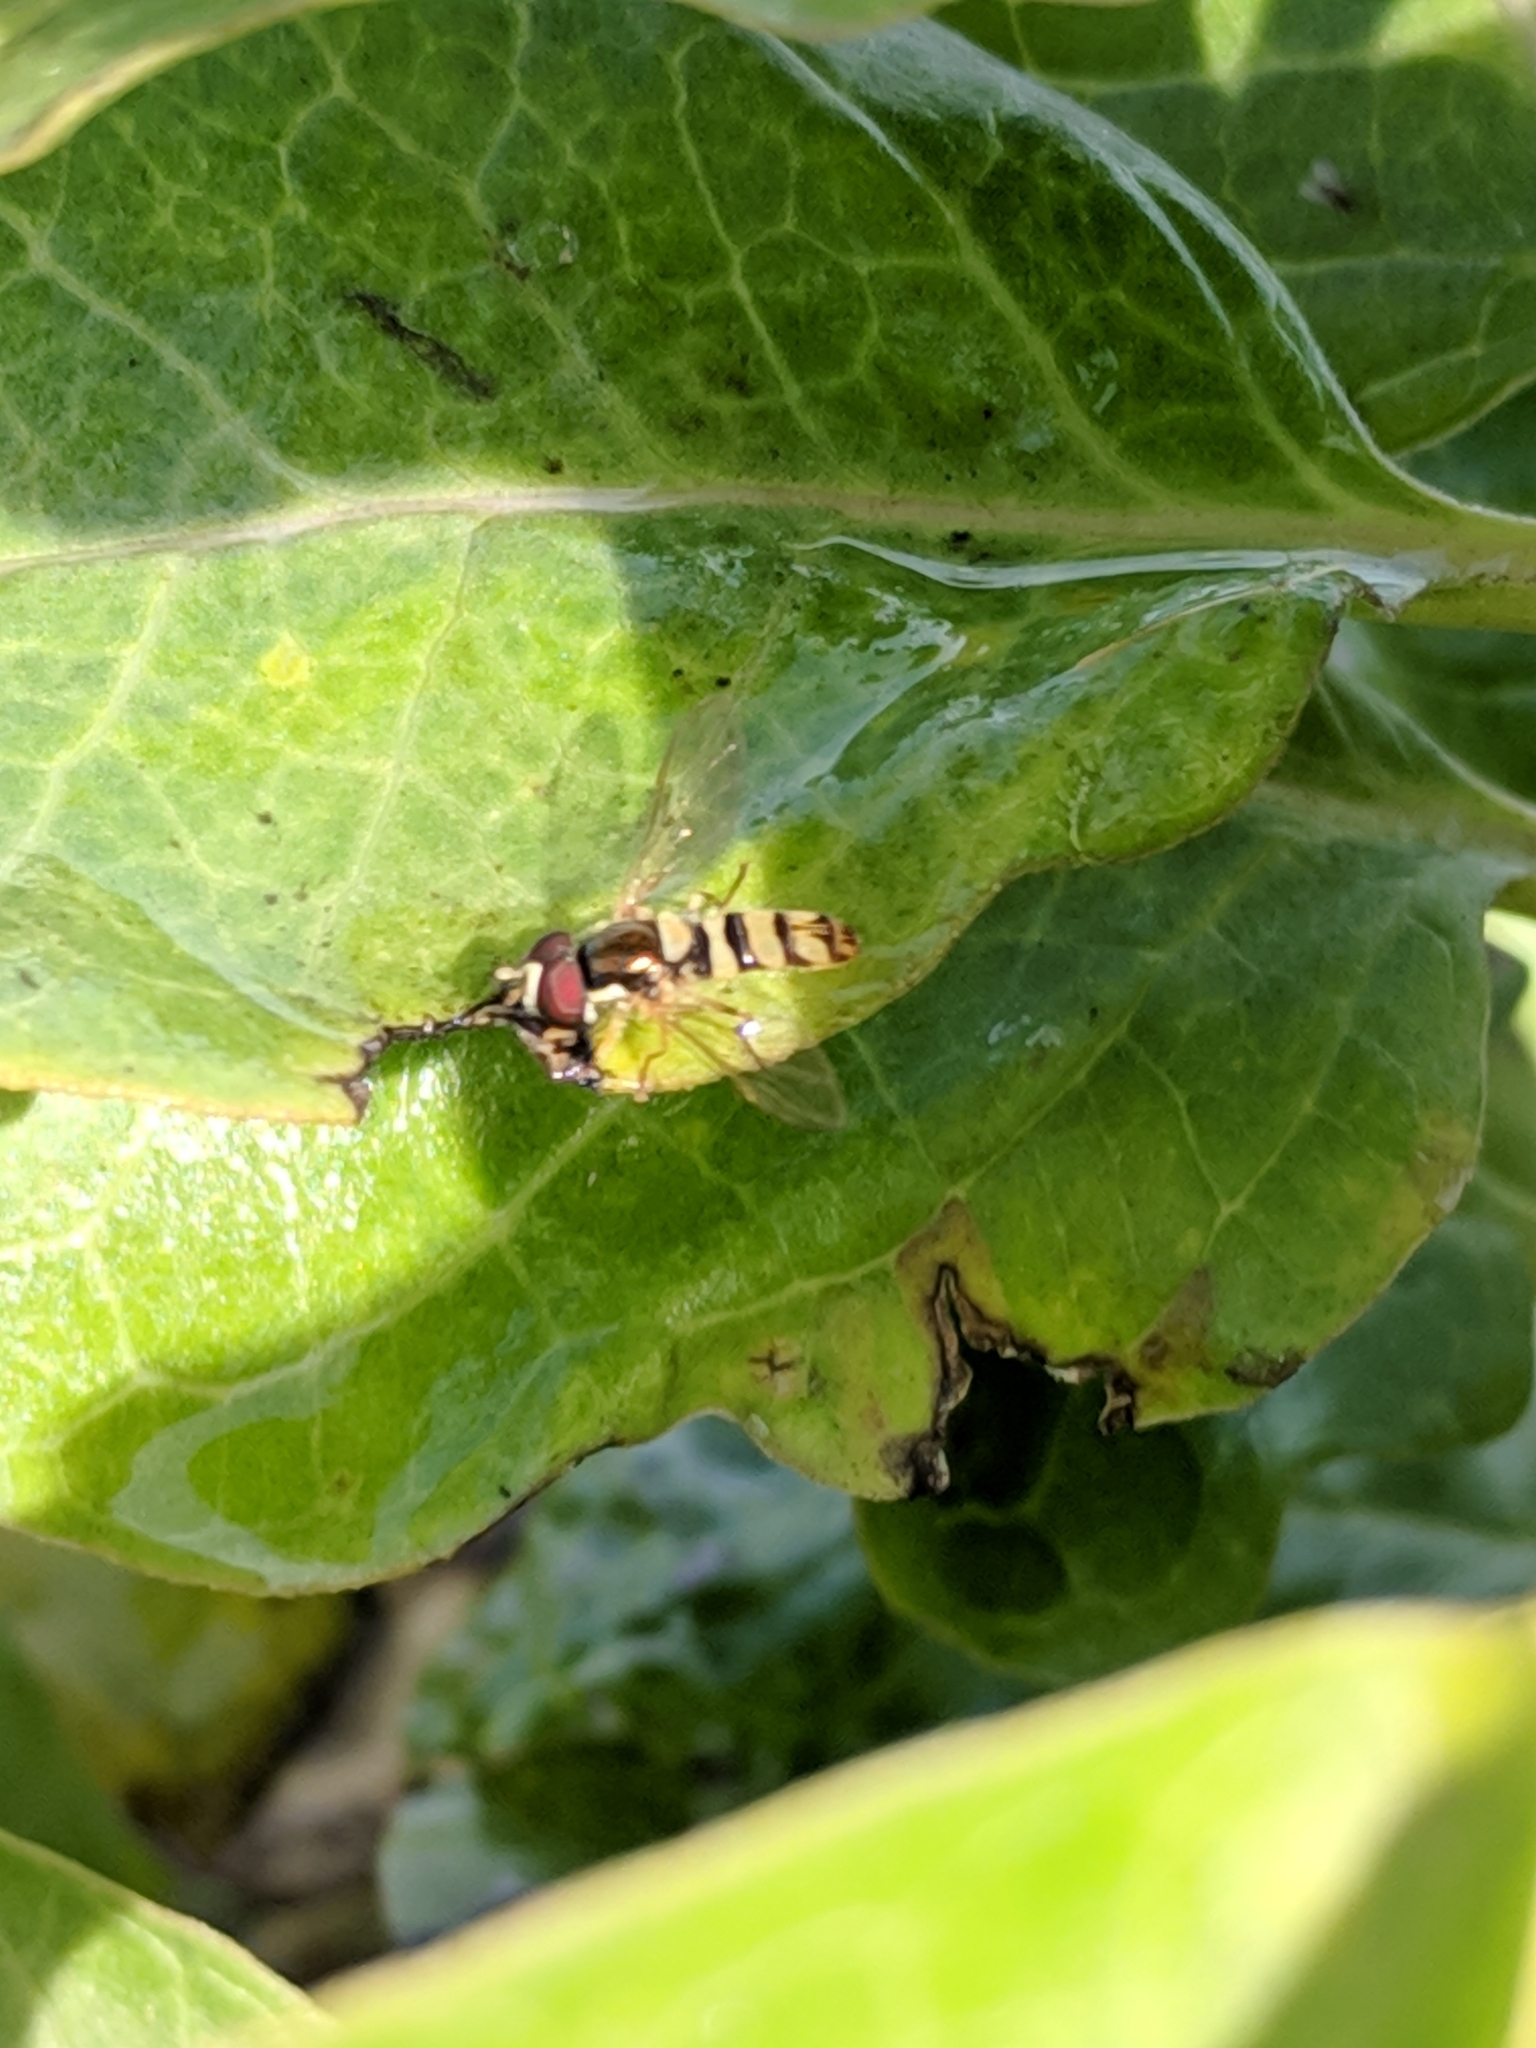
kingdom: Animalia
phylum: Arthropoda
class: Insecta
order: Diptera
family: Syrphidae
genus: Allograpta
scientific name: Allograpta exotica
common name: Syrphid fly
